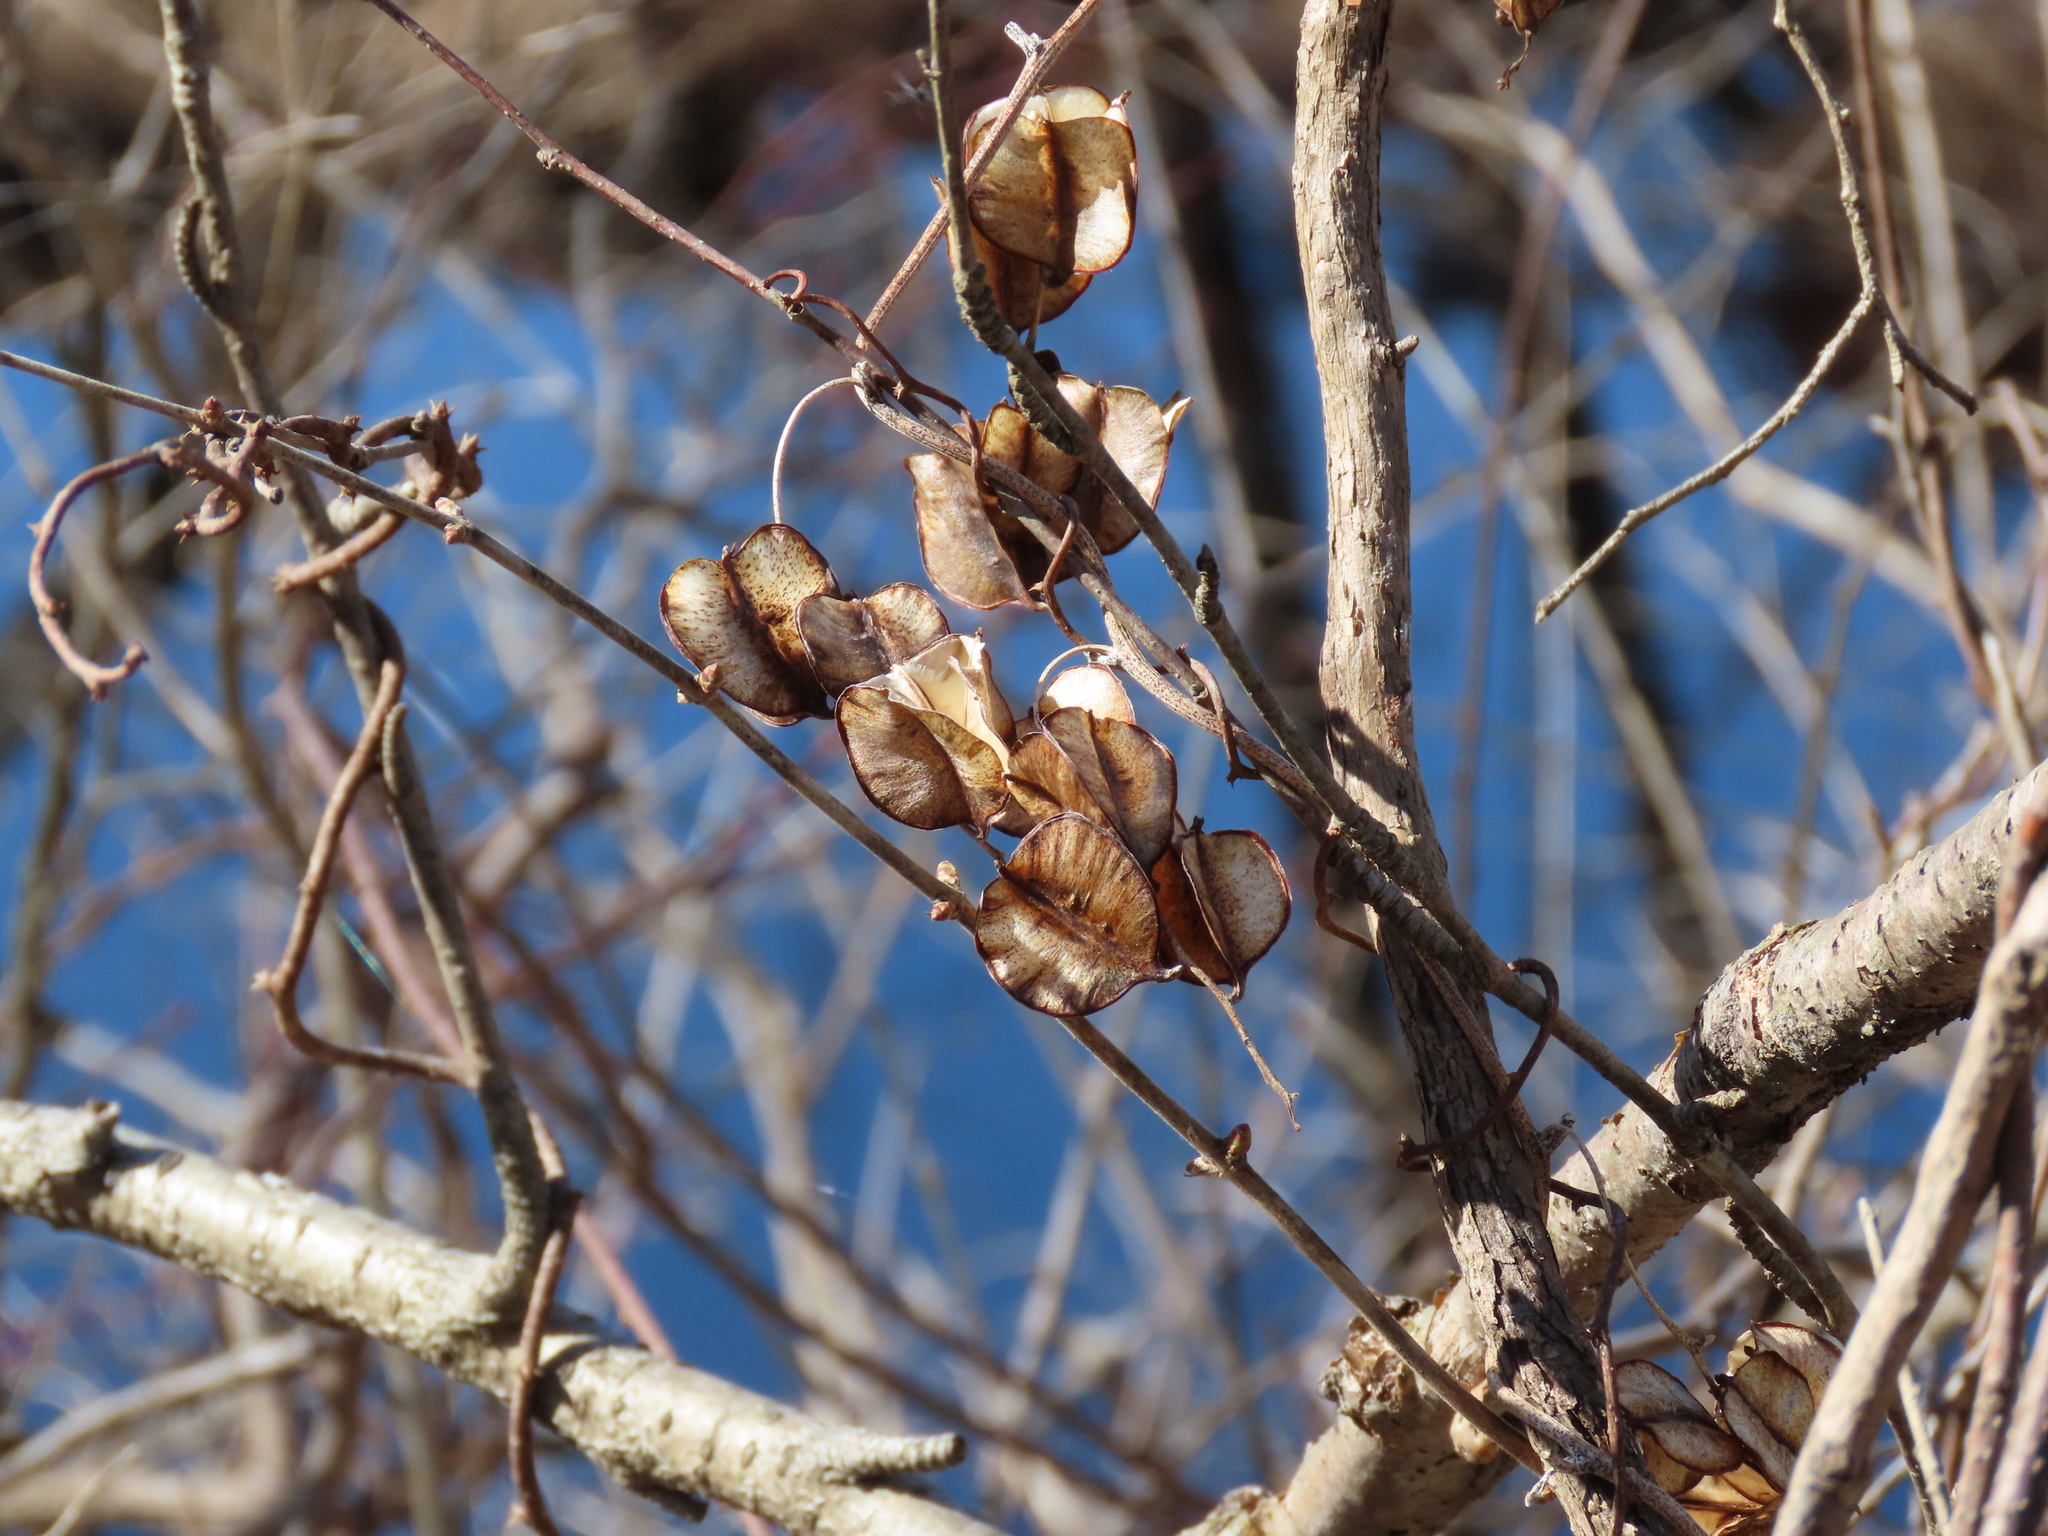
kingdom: Plantae
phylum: Tracheophyta
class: Liliopsida
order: Dioscoreales
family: Dioscoreaceae
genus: Dioscorea
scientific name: Dioscorea villosa
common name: Wild yam
